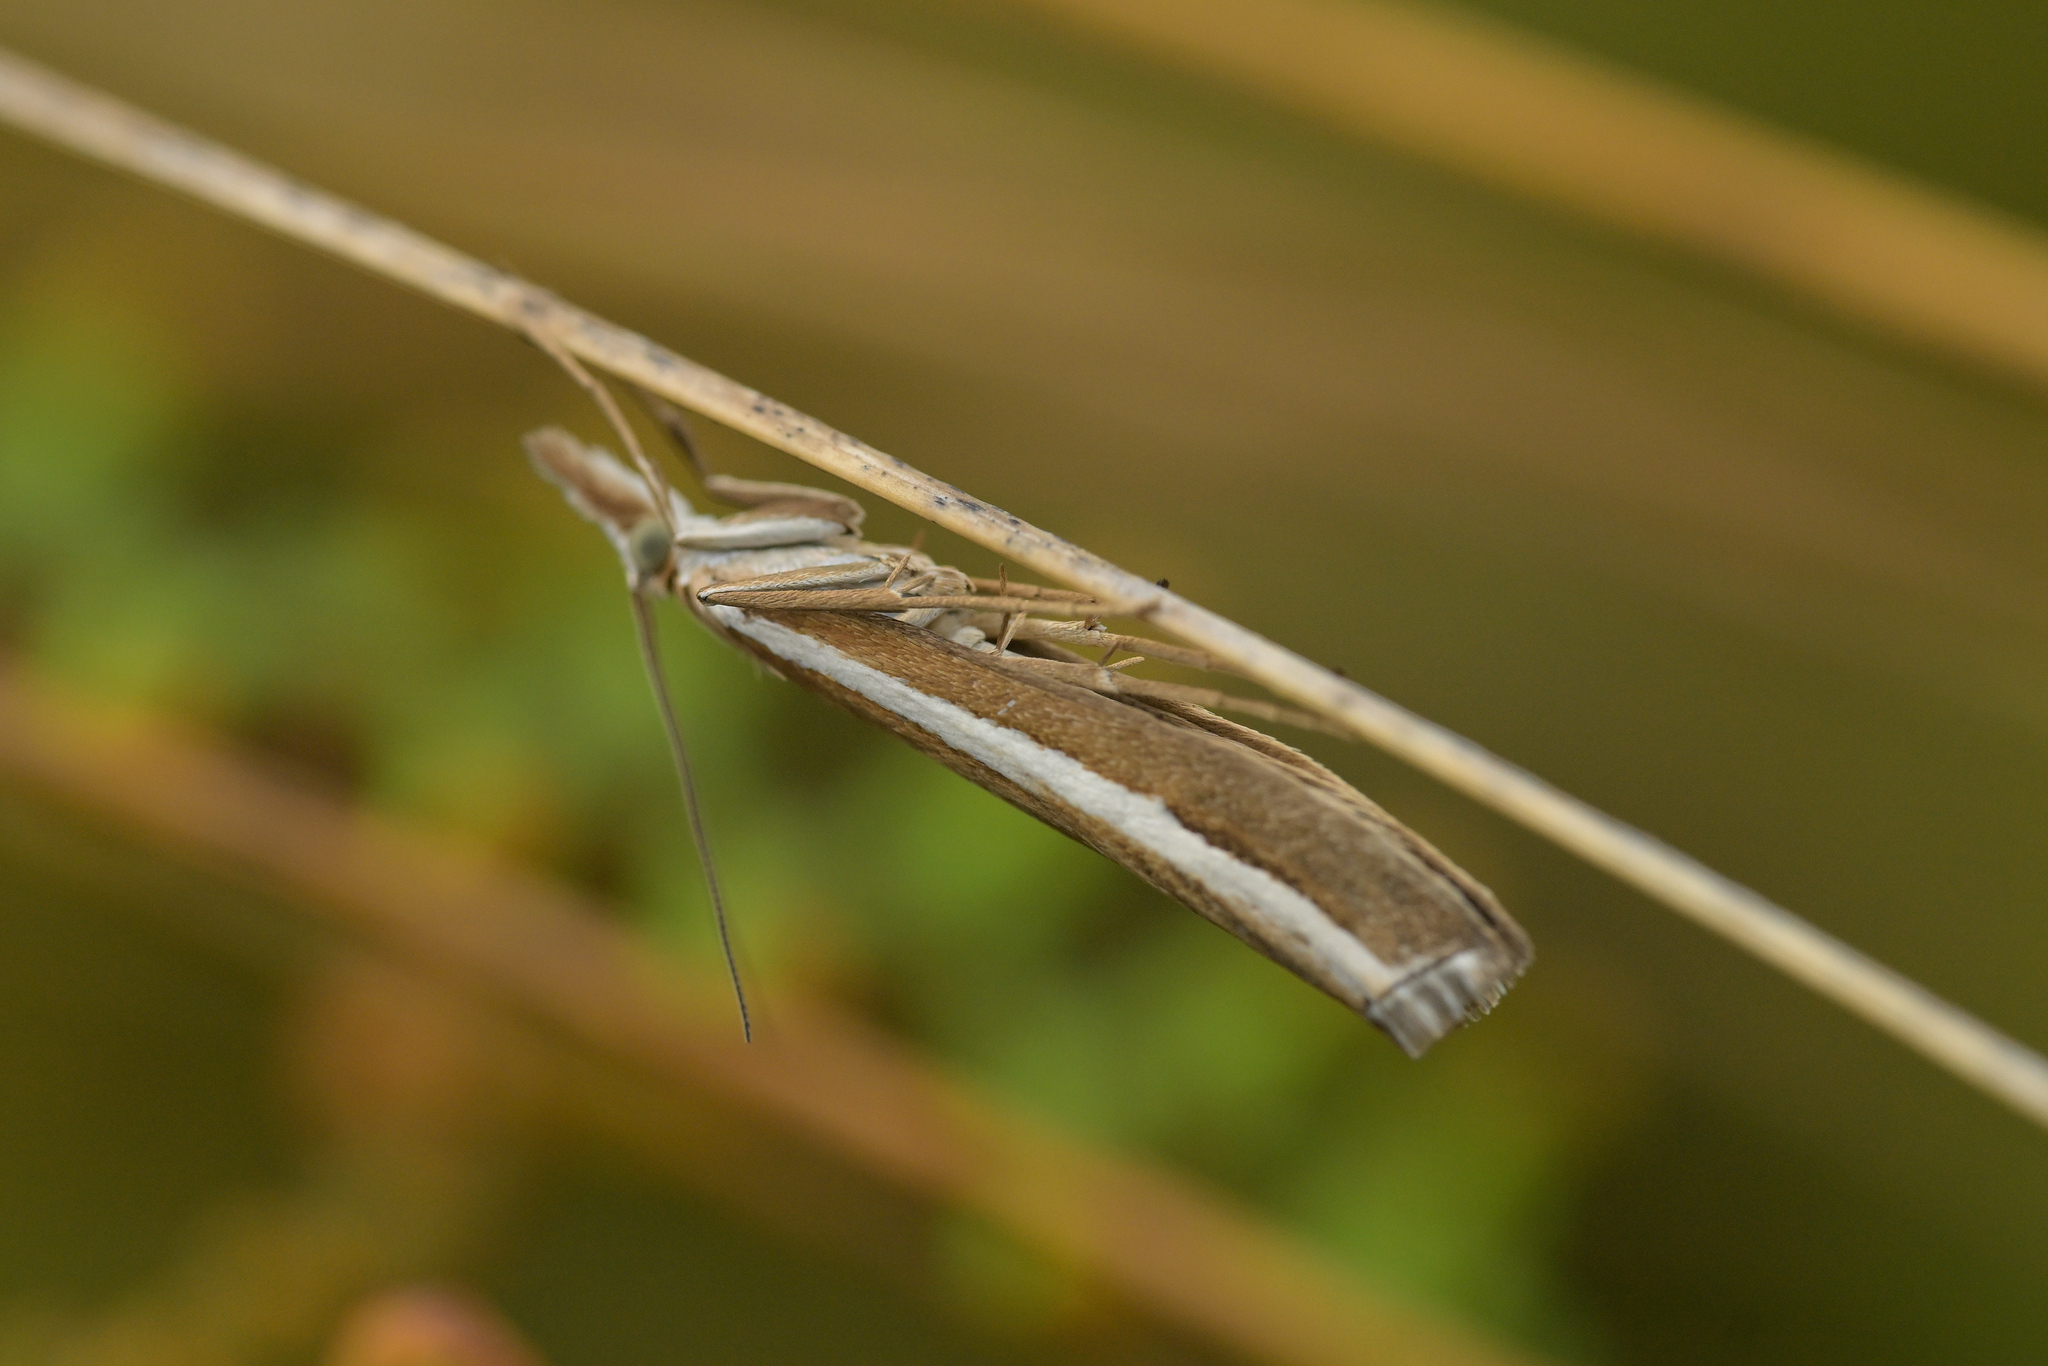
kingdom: Animalia
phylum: Arthropoda
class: Insecta
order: Lepidoptera
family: Crambidae
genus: Orocrambus
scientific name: Orocrambus vittellus
